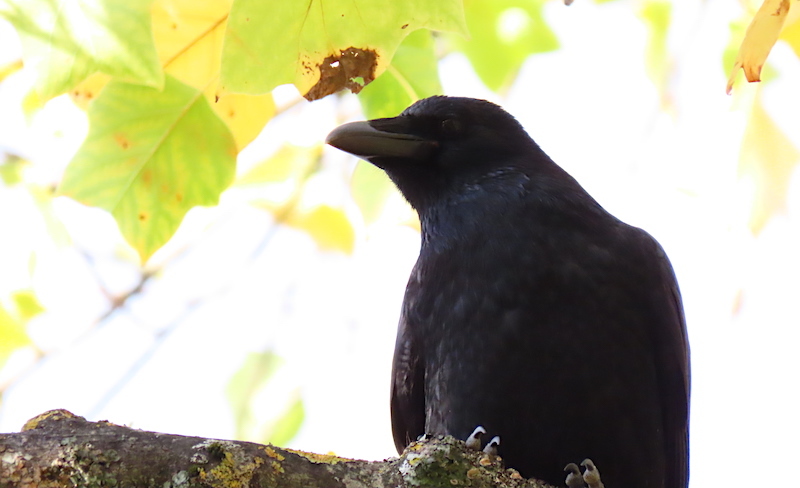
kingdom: Animalia
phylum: Chordata
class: Aves
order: Passeriformes
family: Corvidae
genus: Corvus
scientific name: Corvus corone
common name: Carrion crow
